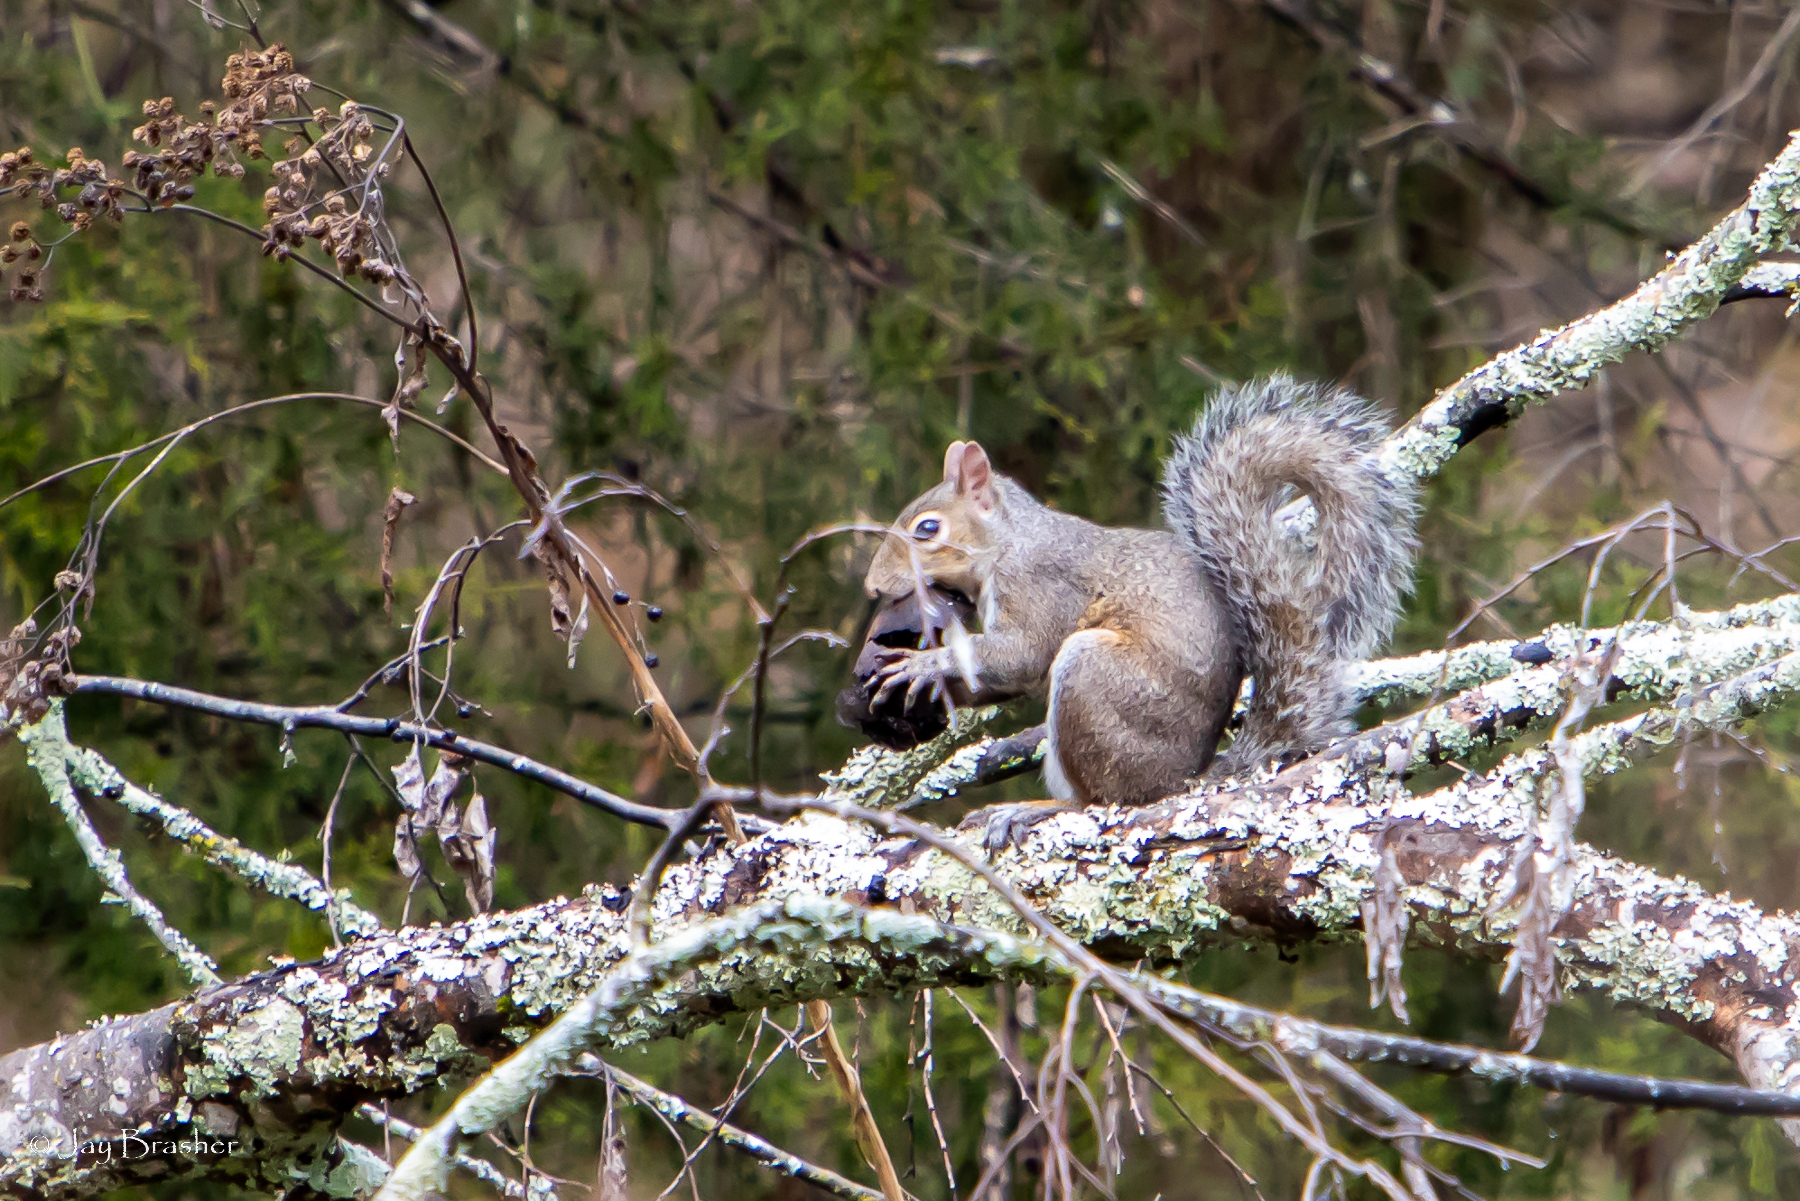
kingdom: Animalia
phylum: Chordata
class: Mammalia
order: Rodentia
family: Sciuridae
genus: Sciurus
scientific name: Sciurus carolinensis
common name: Eastern gray squirrel
